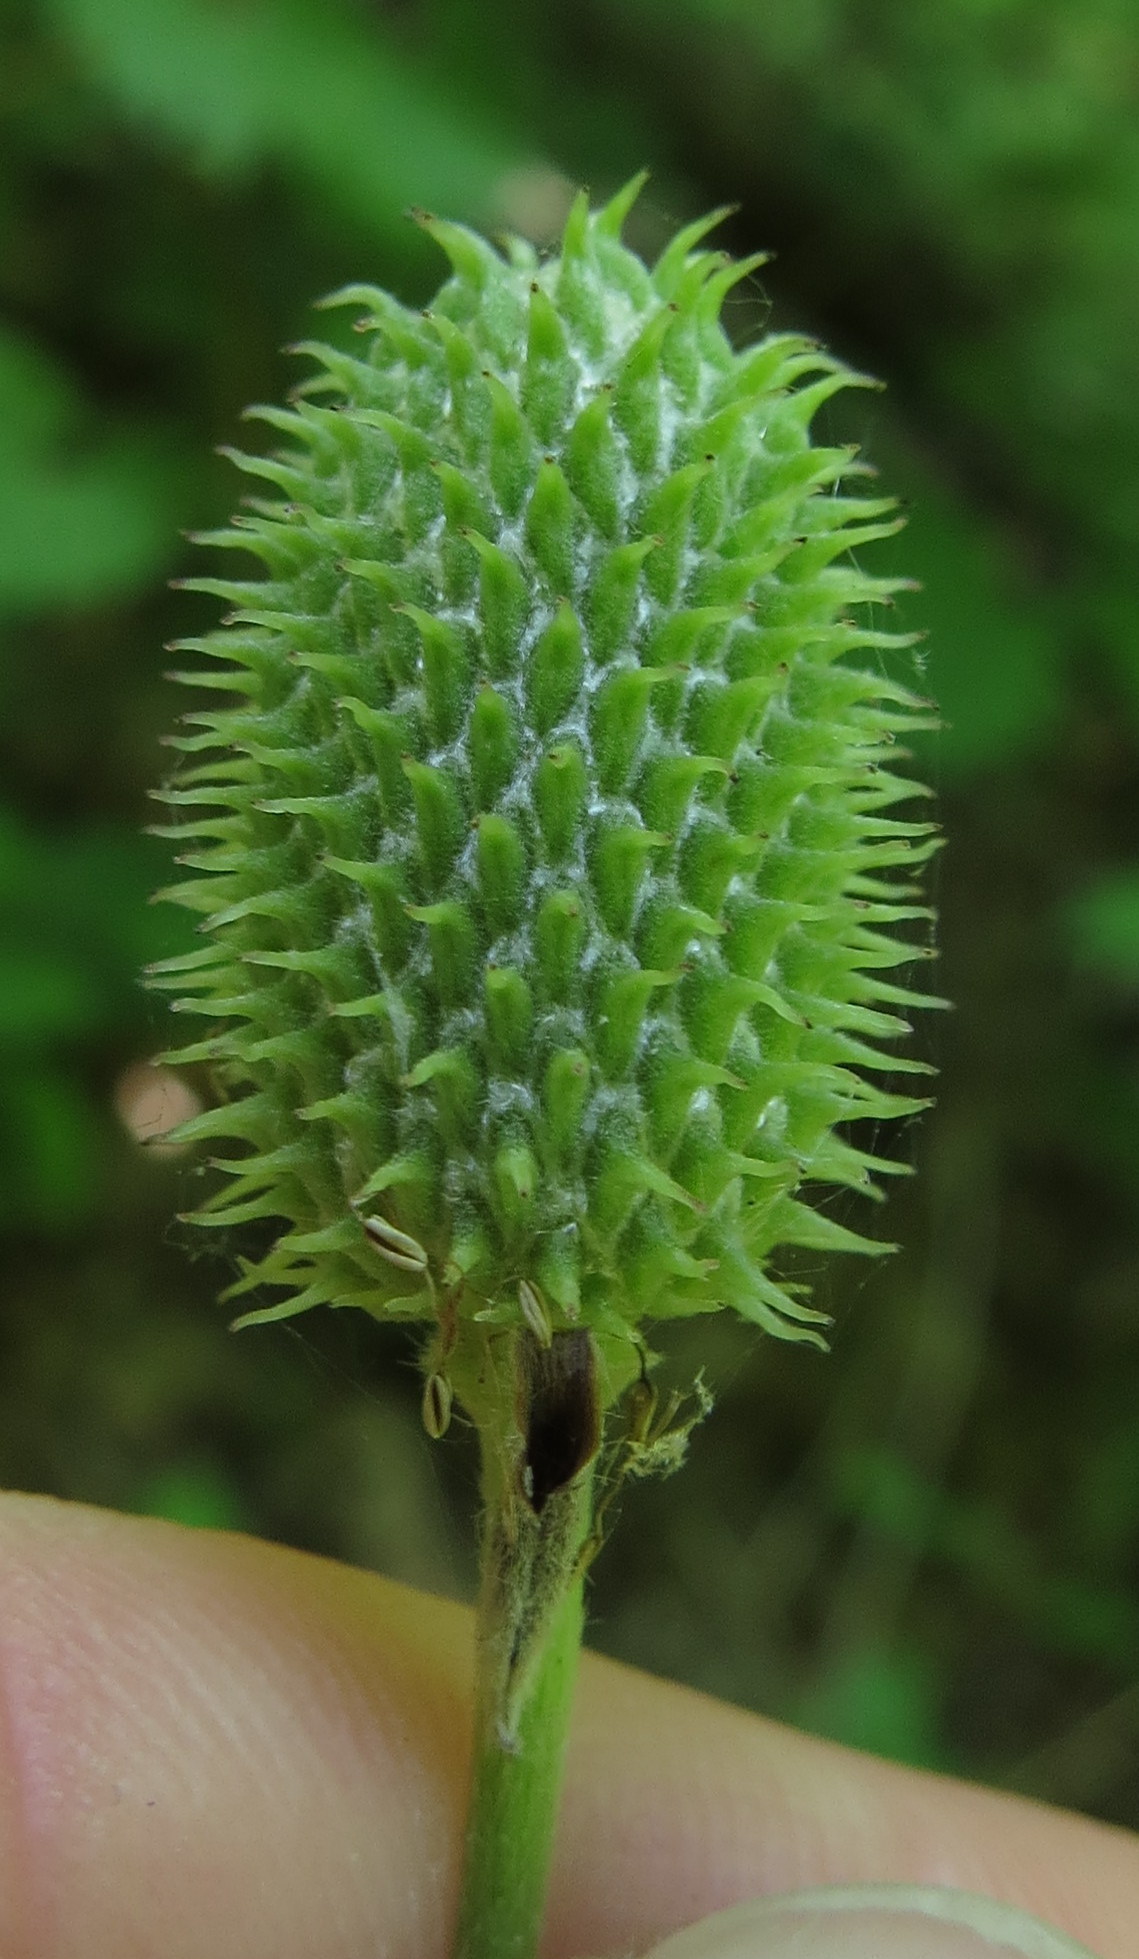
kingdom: Plantae
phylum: Tracheophyta
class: Magnoliopsida
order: Ranunculales
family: Ranunculaceae
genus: Anemone
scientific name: Anemone virginiana
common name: Tall anemone
